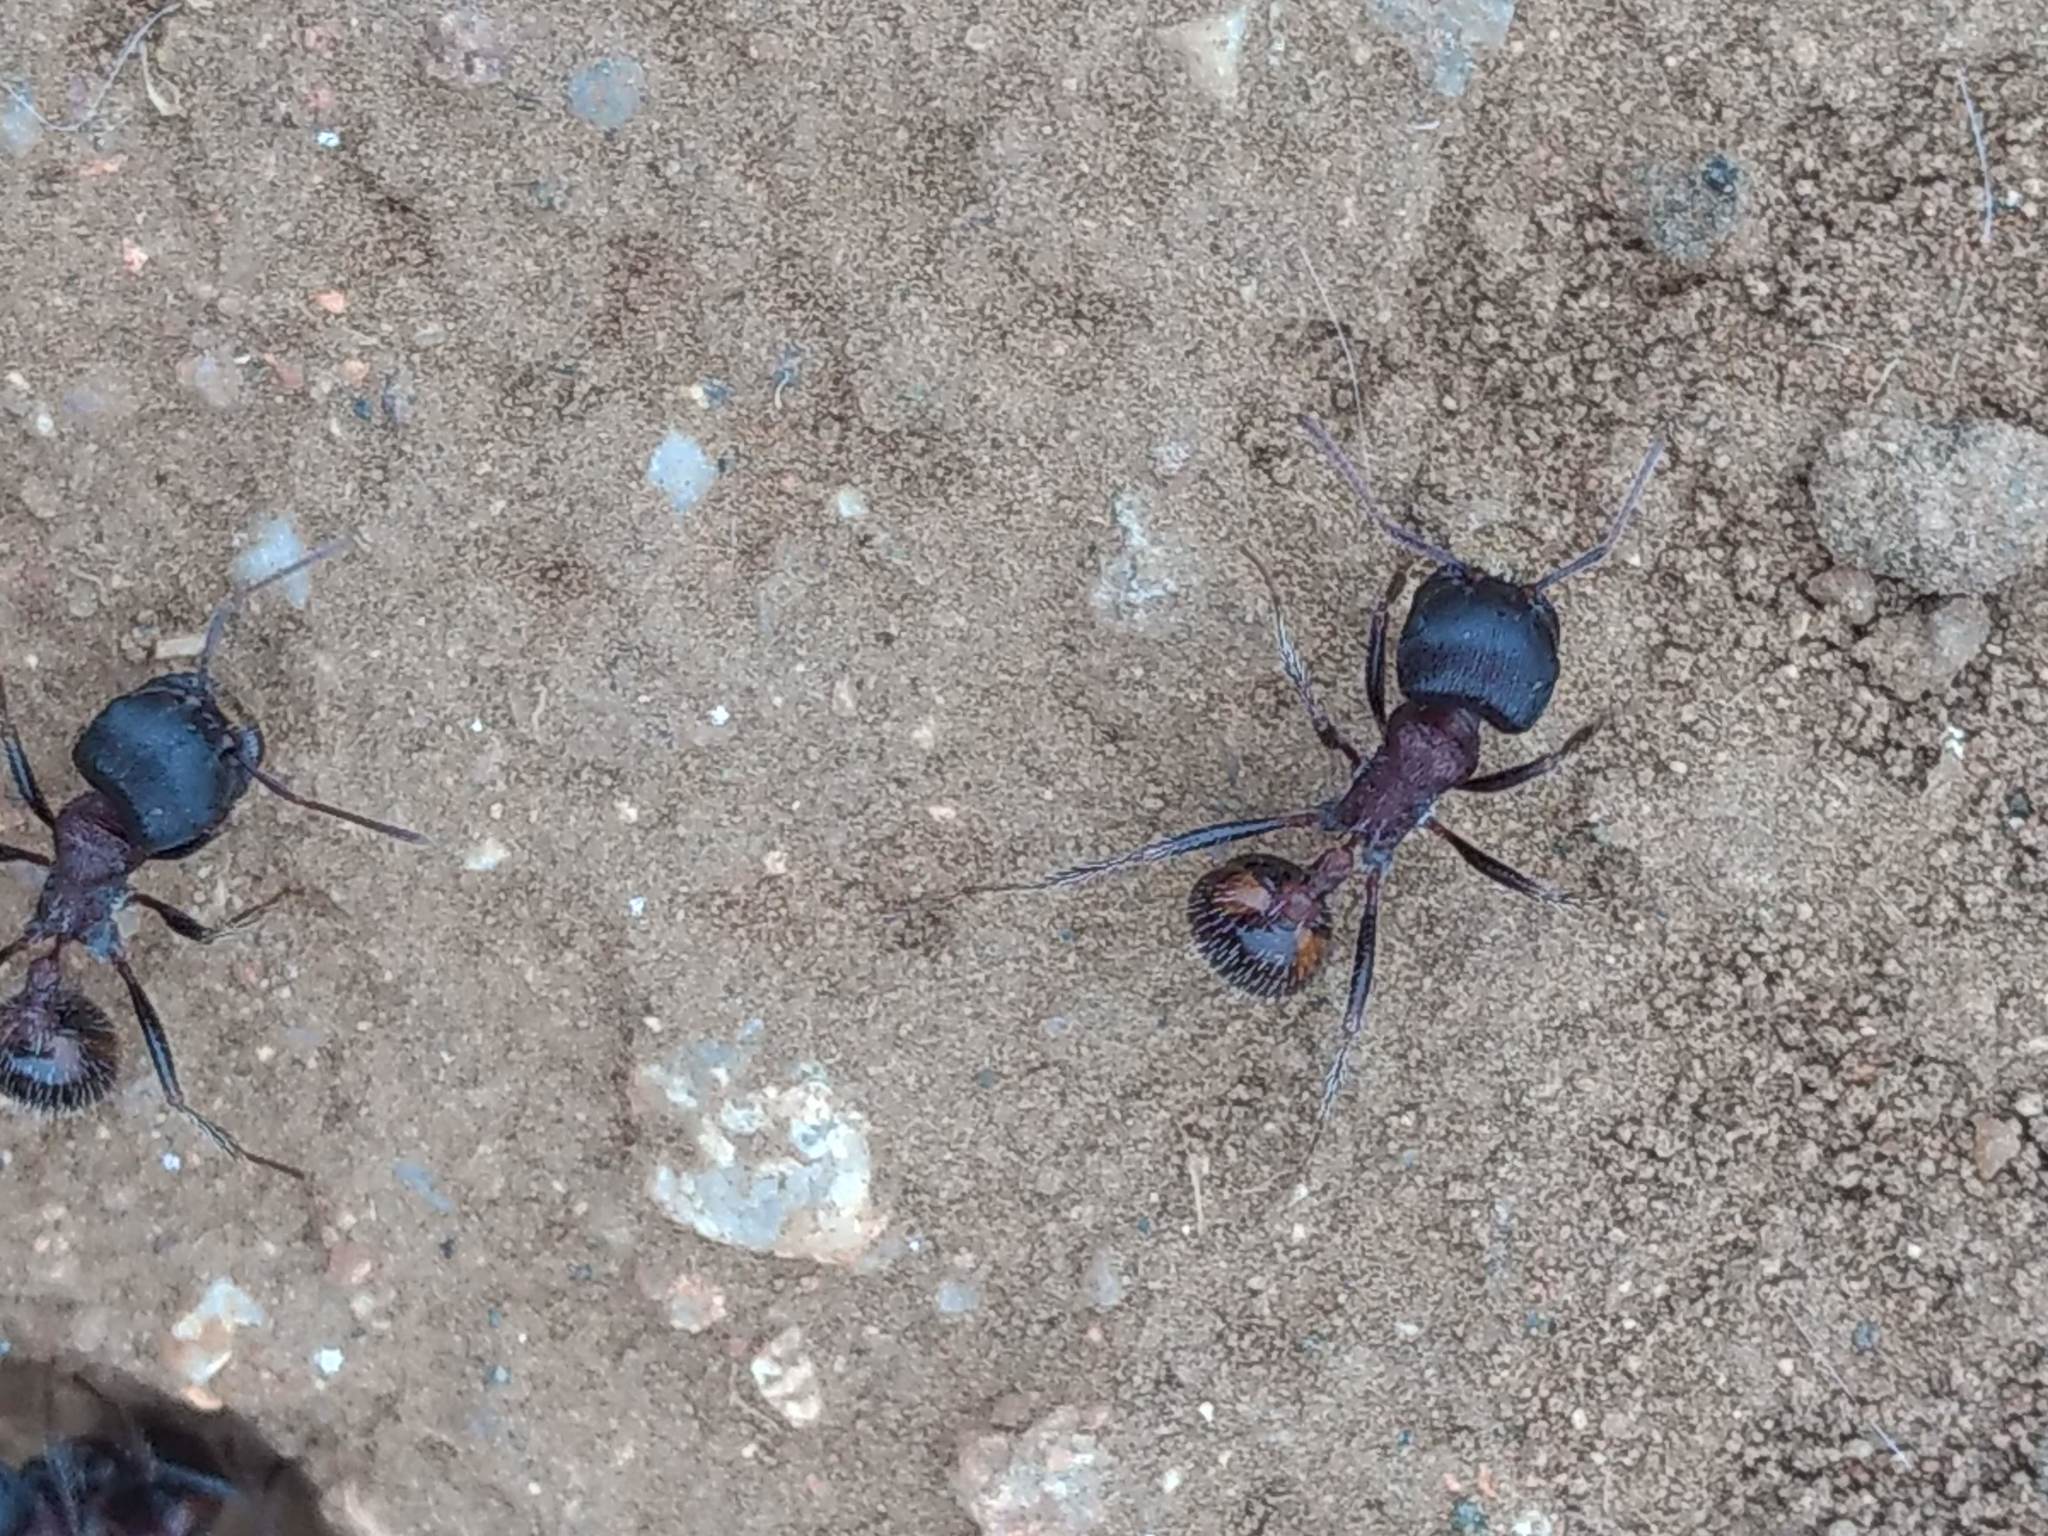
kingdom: Animalia
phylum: Arthropoda
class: Insecta
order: Hymenoptera
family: Formicidae
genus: Pogonomyrmex
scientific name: Pogonomyrmex rugosus
